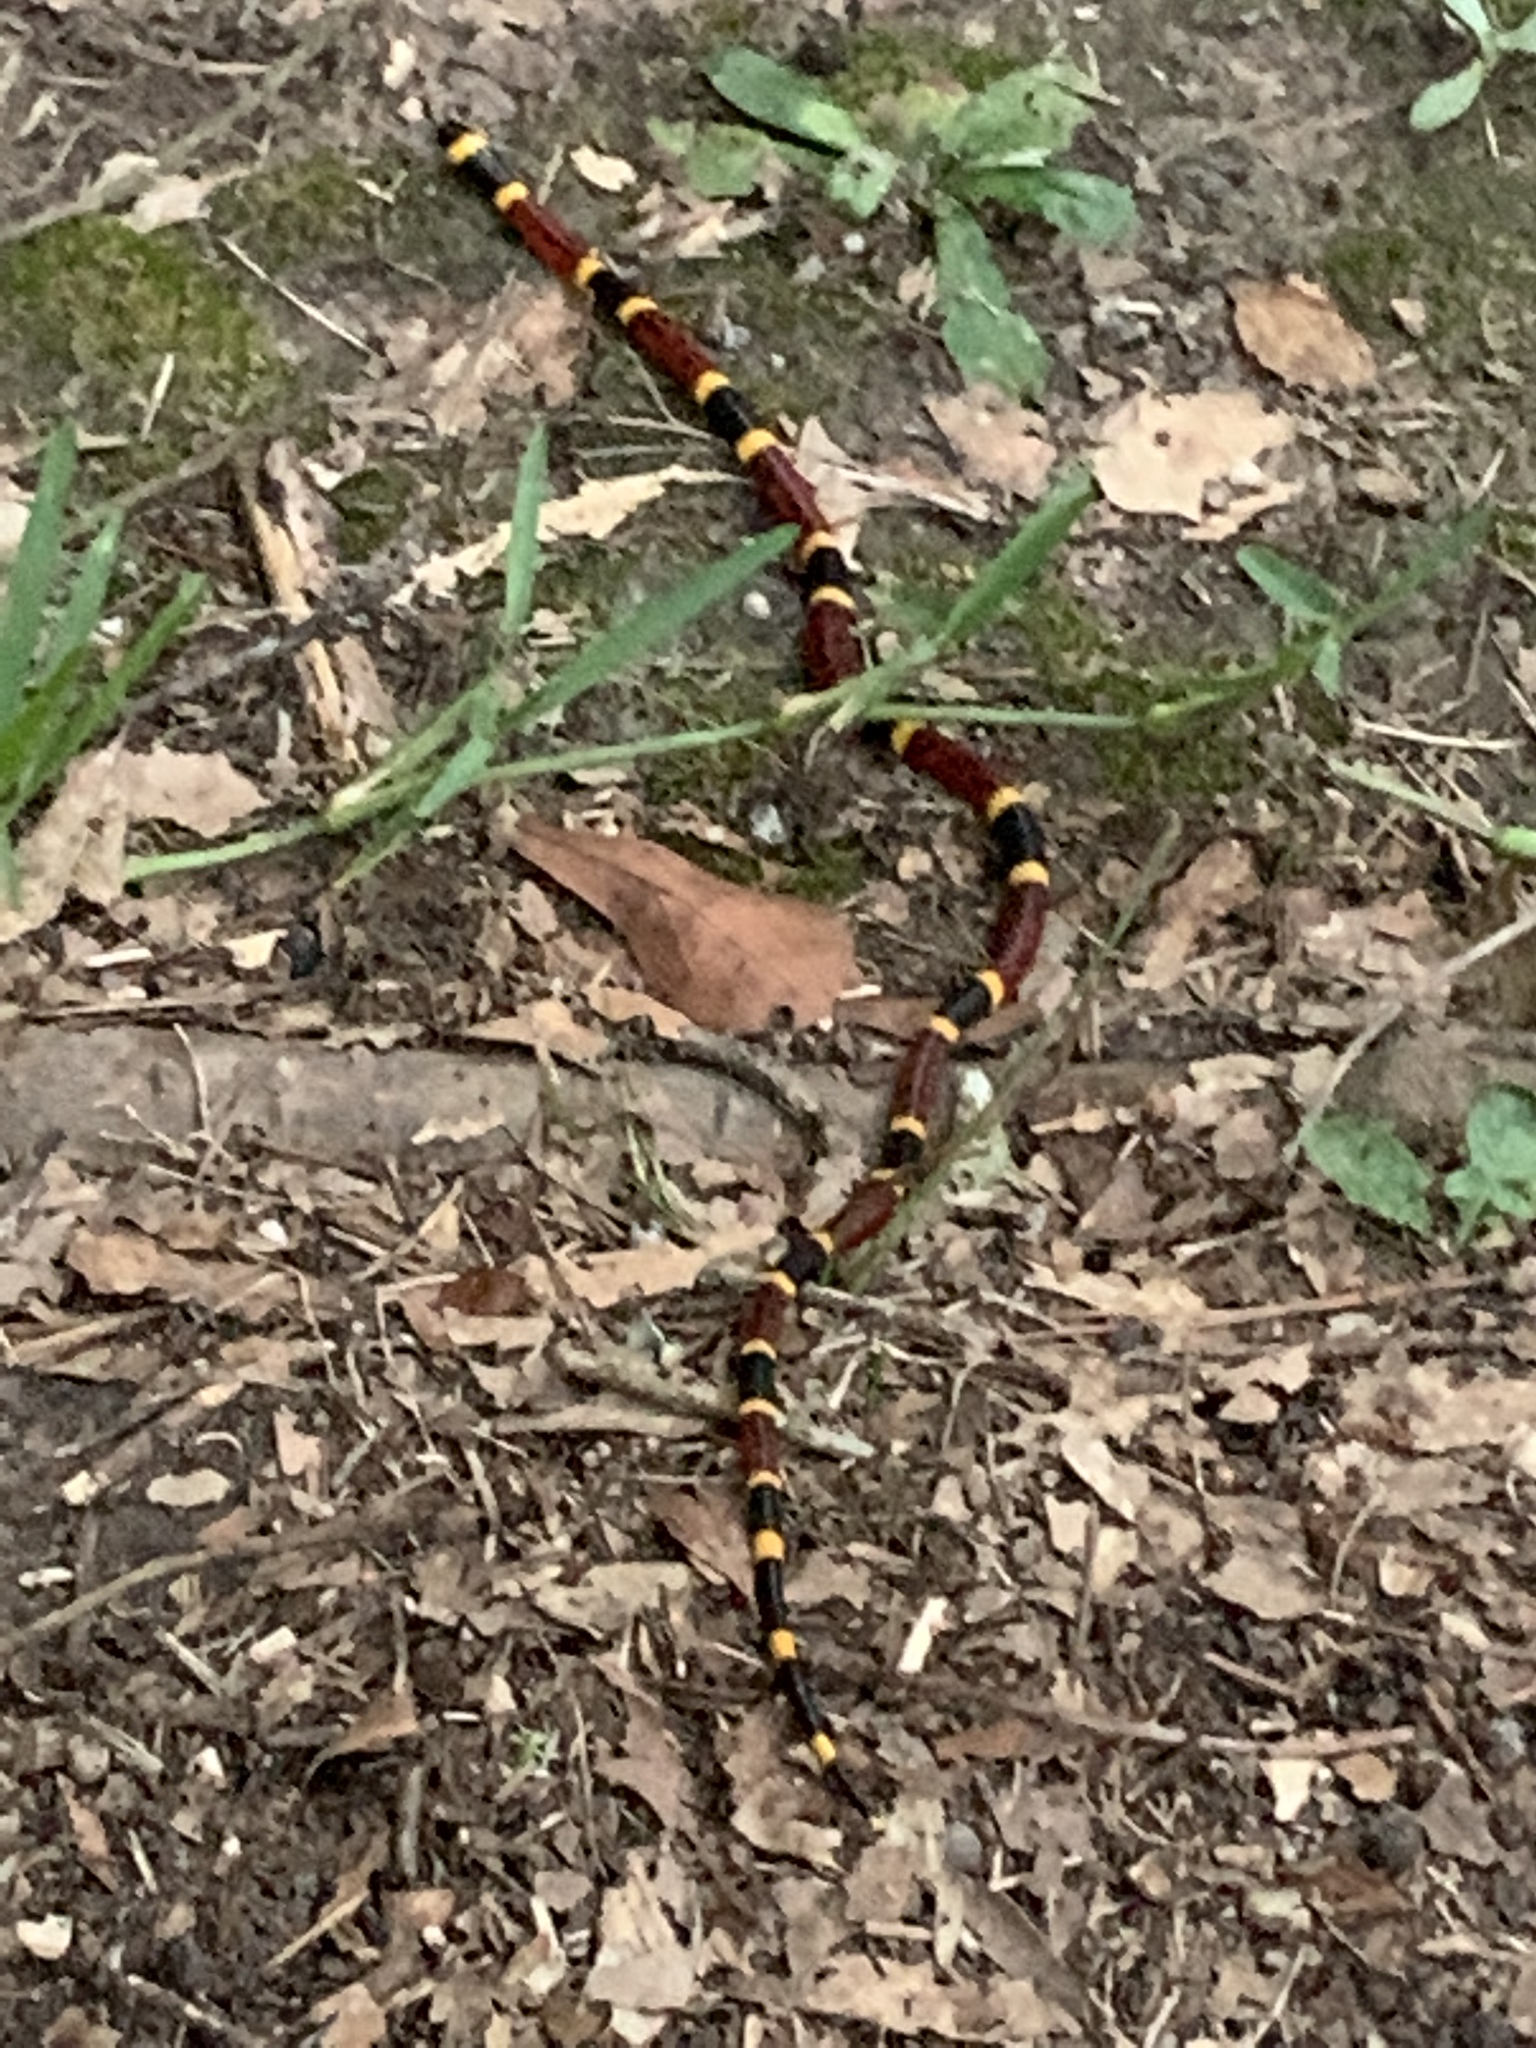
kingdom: Animalia
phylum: Chordata
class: Squamata
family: Elapidae
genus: Micrurus
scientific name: Micrurus tener
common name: Texas coral snake
